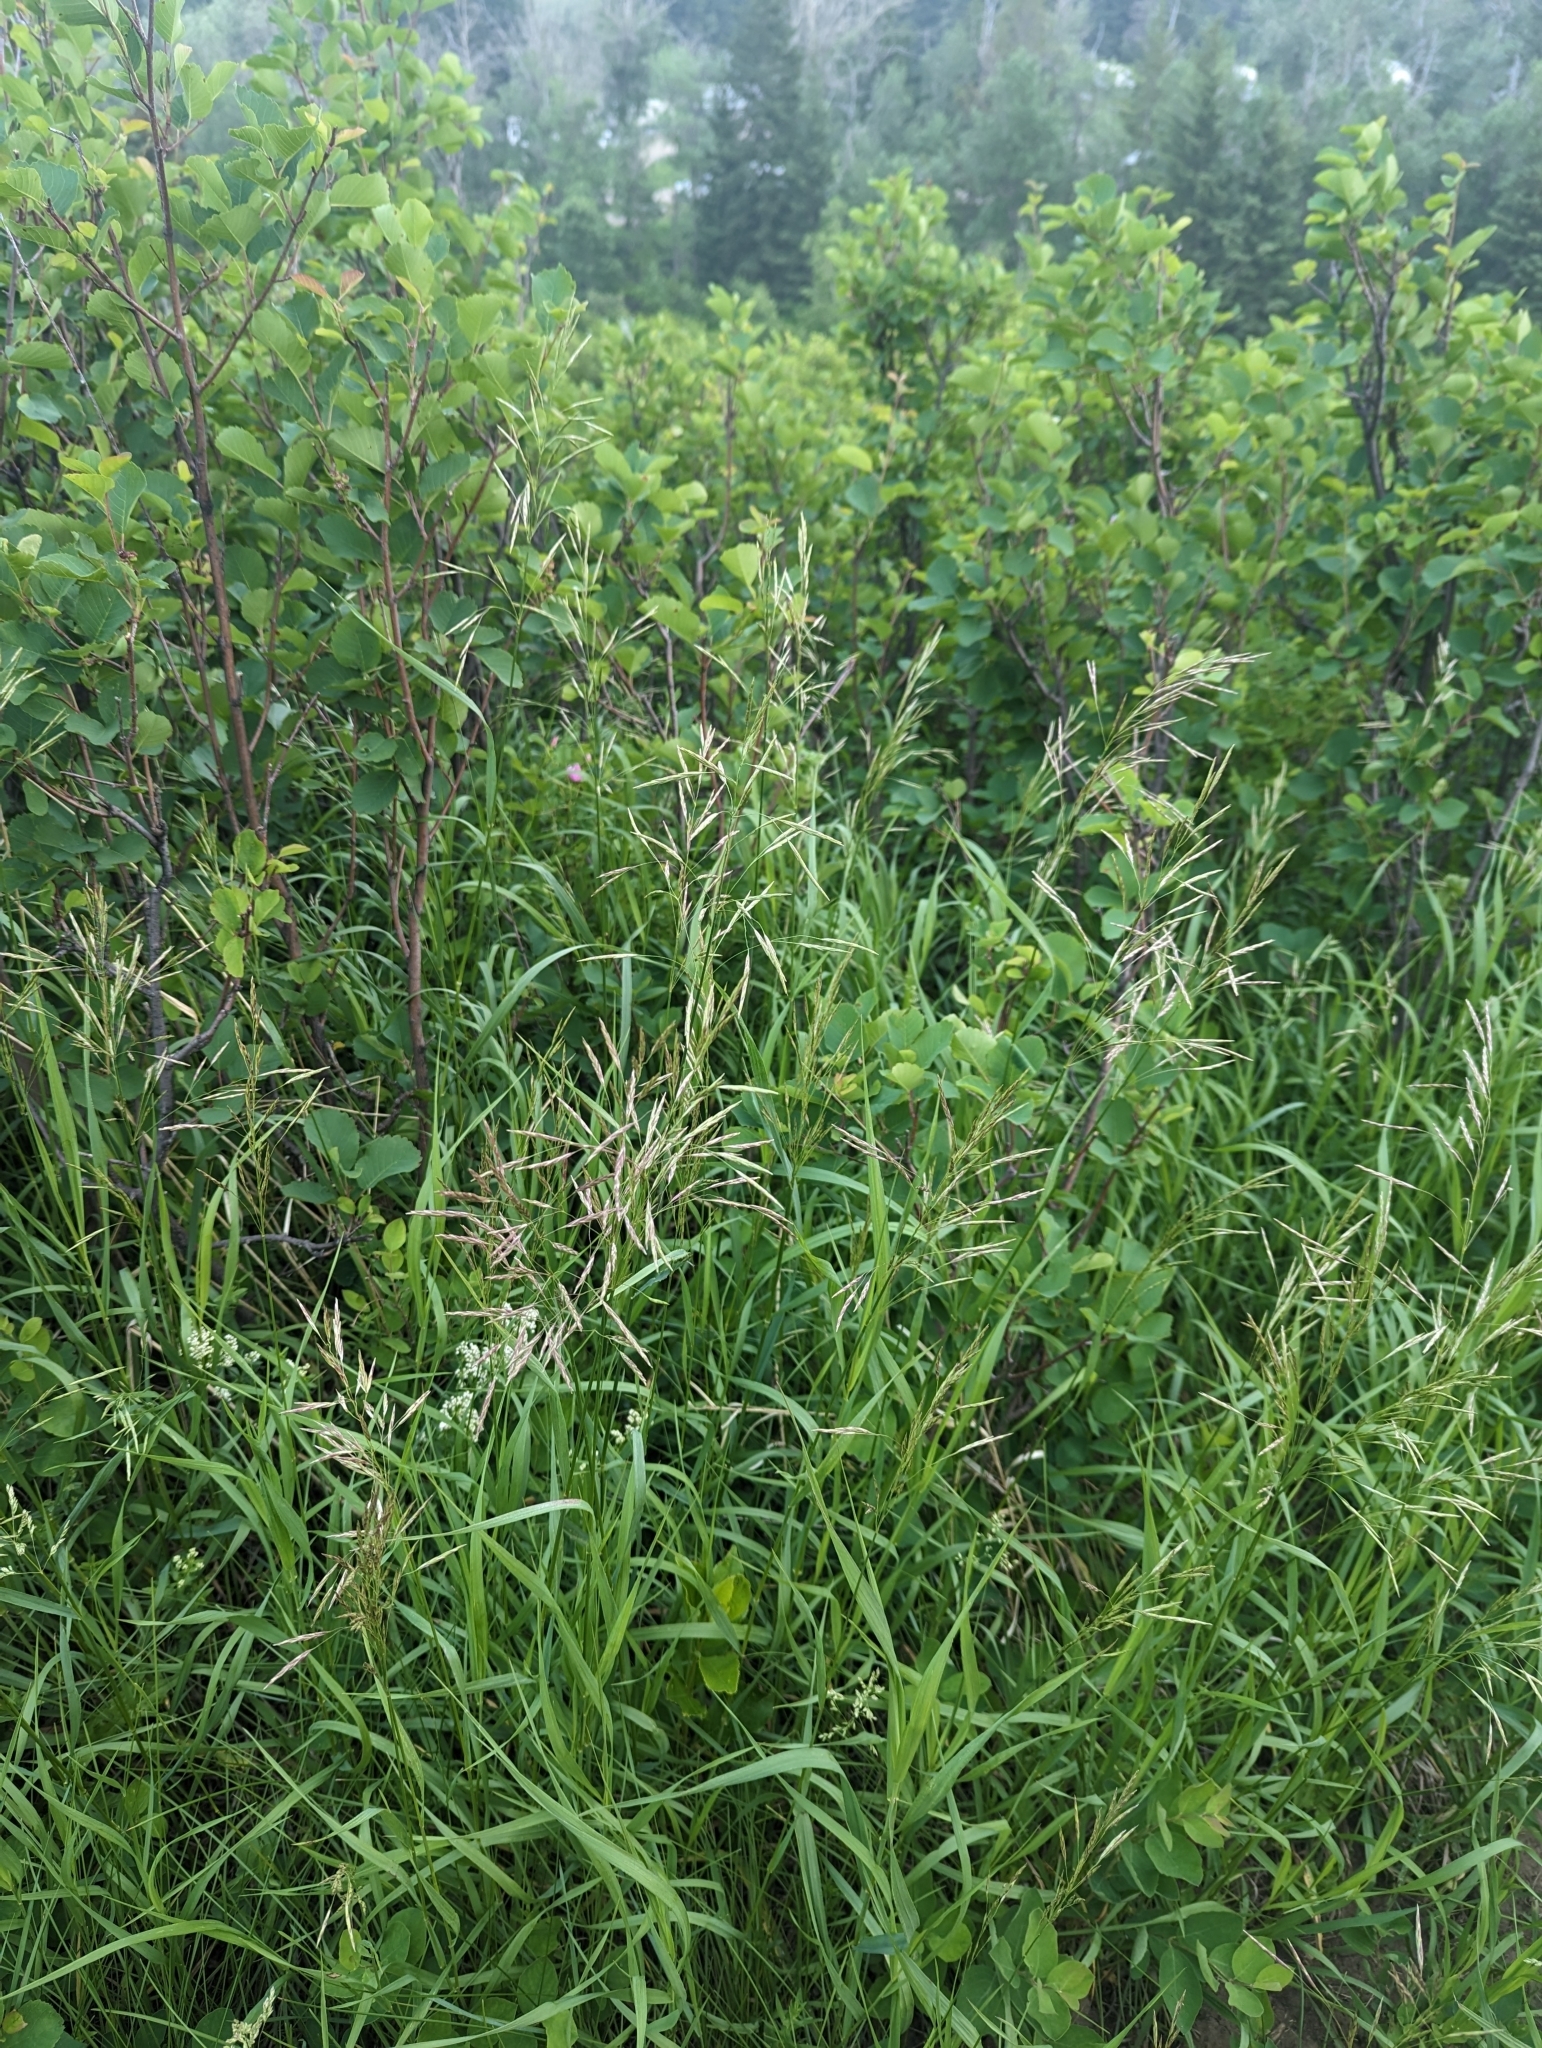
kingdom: Plantae
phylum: Tracheophyta
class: Liliopsida
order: Poales
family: Poaceae
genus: Bromus
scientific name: Bromus inermis
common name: Smooth brome
